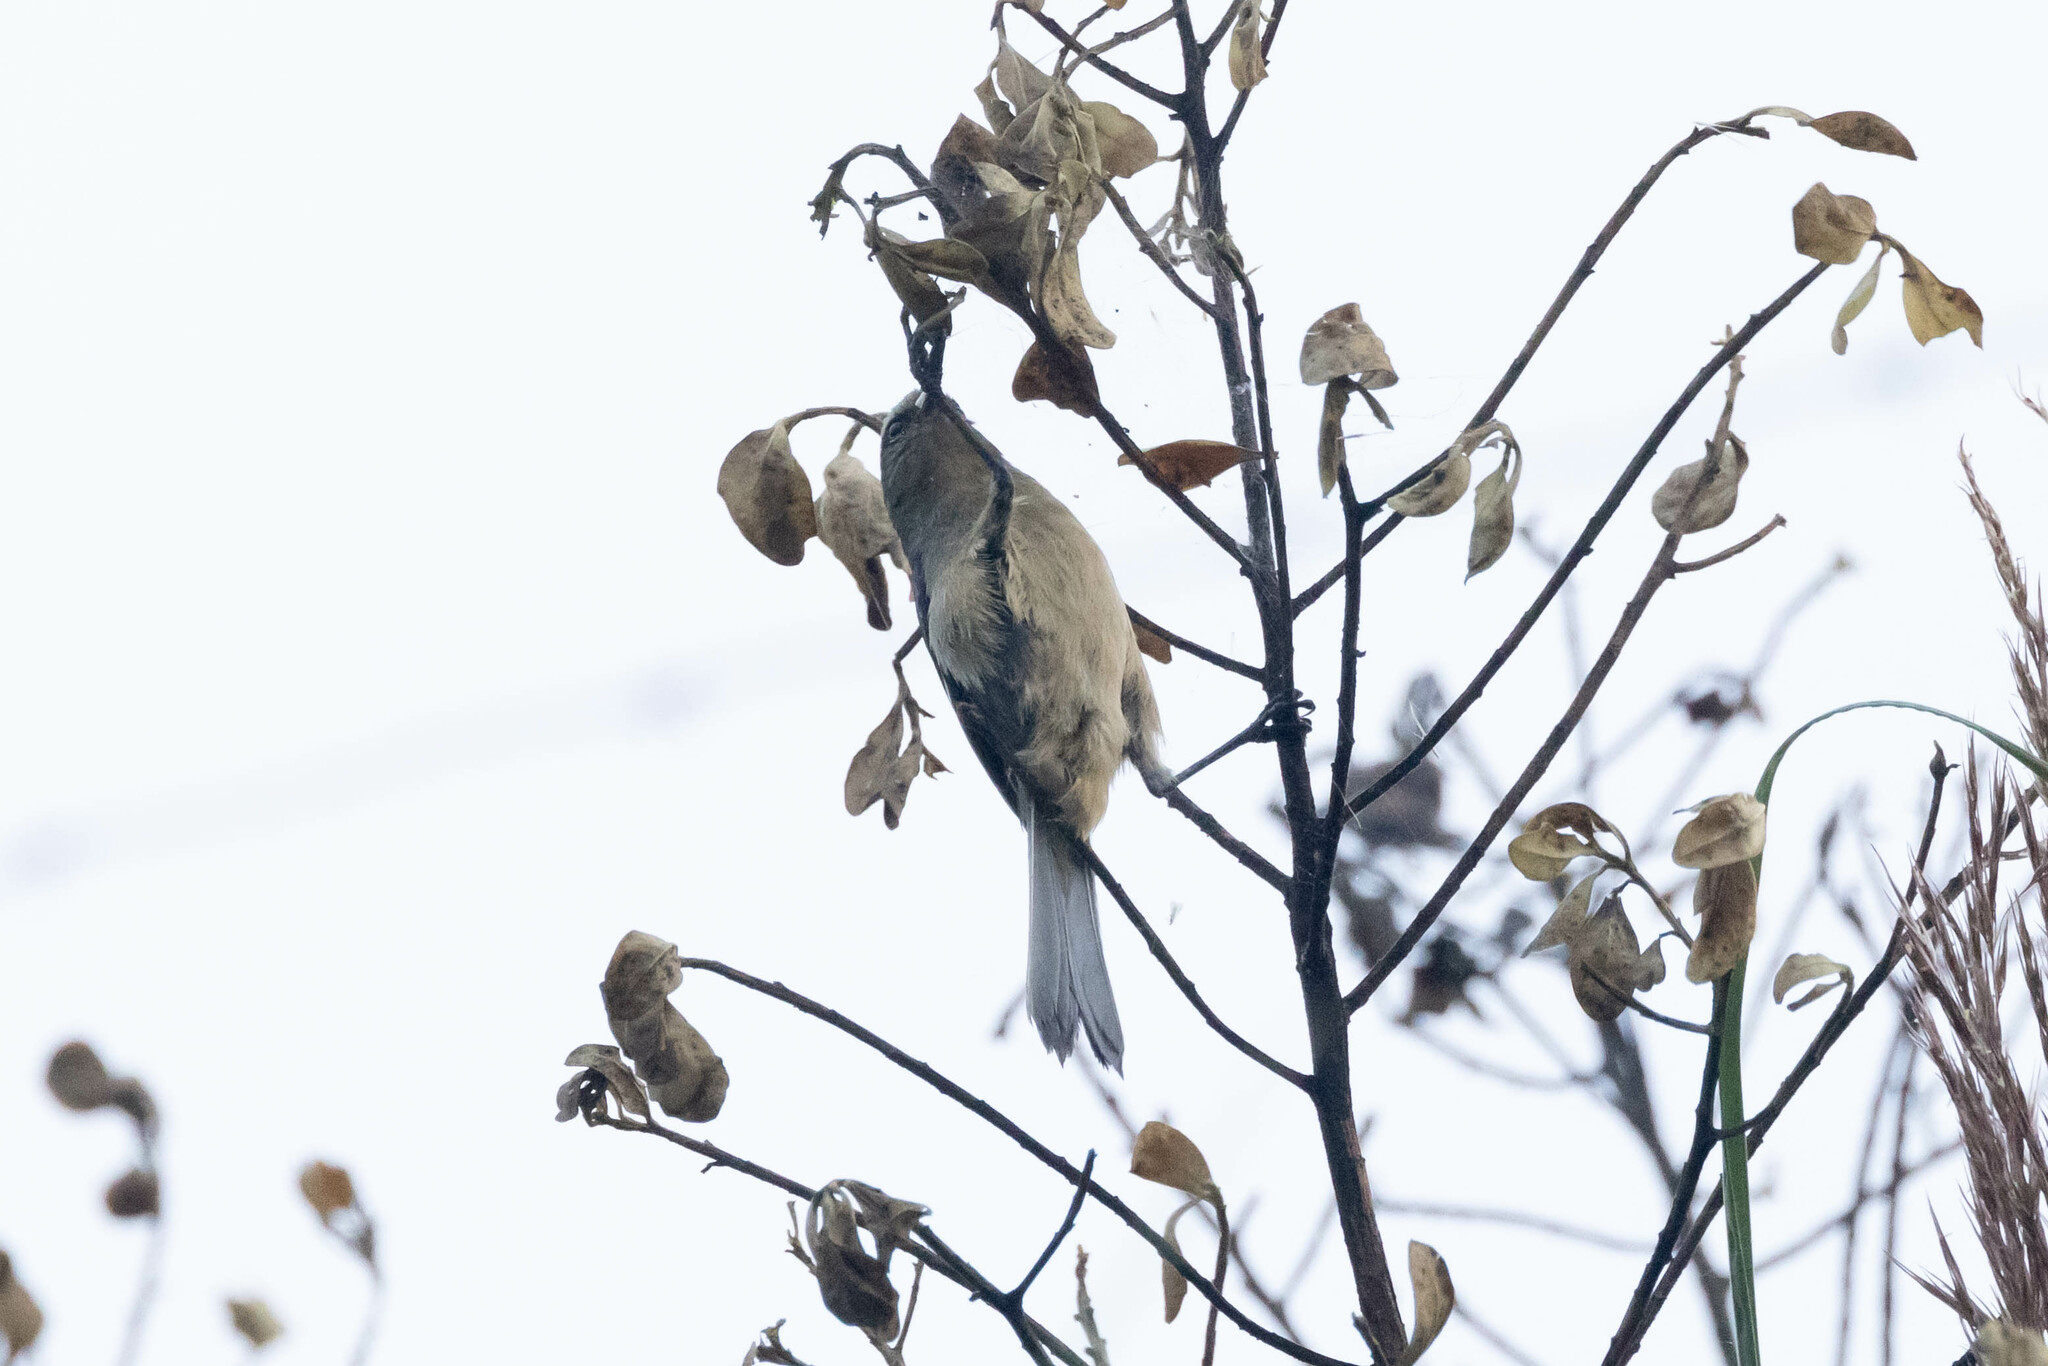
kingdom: Animalia
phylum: Chordata
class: Aves
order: Passeriformes
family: Thraupidae
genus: Conirostrum
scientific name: Conirostrum cinereum
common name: Cinereous conebill
